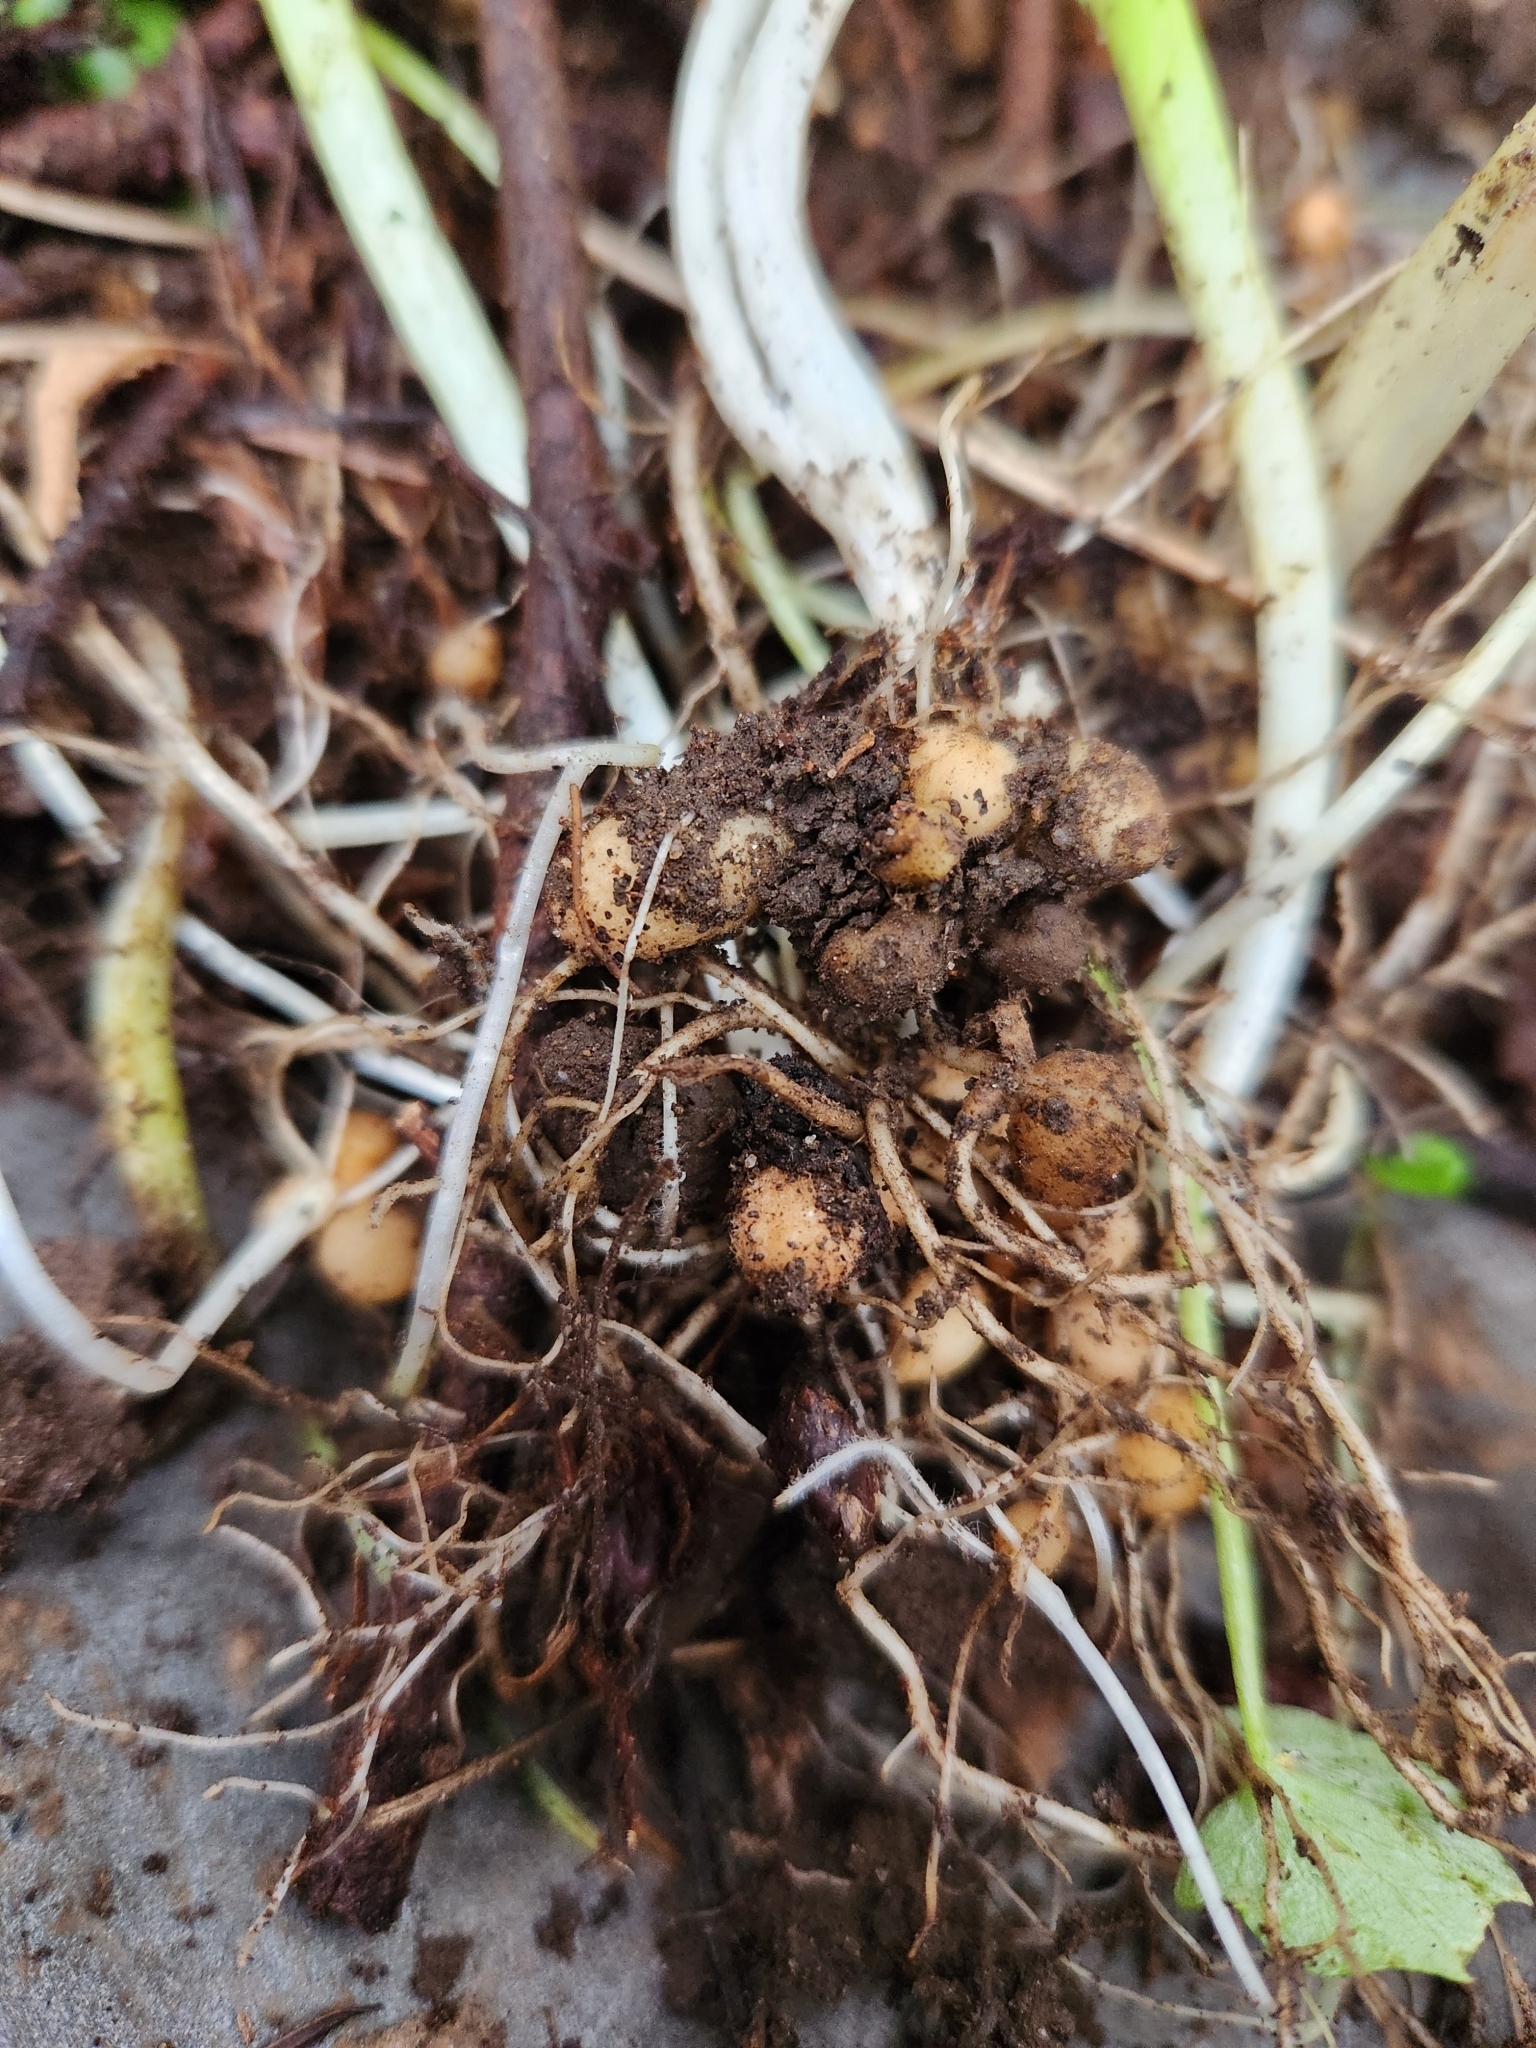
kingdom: Plantae
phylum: Tracheophyta
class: Magnoliopsida
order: Ranunculales
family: Ranunculaceae
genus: Ficaria
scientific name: Ficaria verna
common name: Lesser celandine
